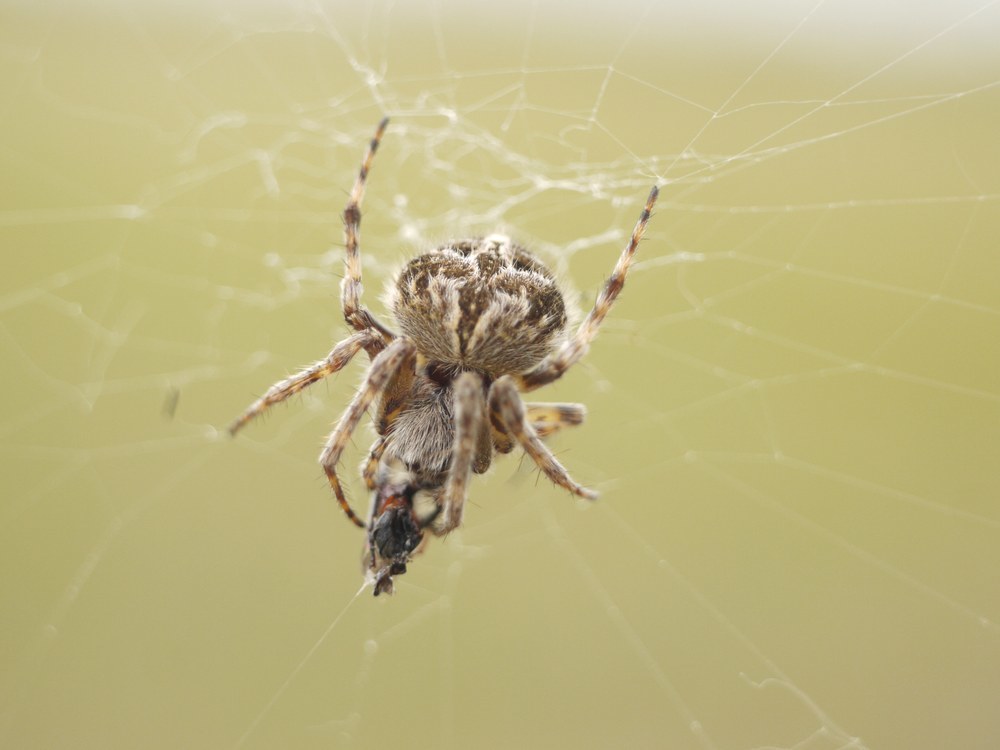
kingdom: Animalia
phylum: Arthropoda
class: Arachnida
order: Araneae
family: Araneidae
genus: Agalenatea
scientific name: Agalenatea redii
